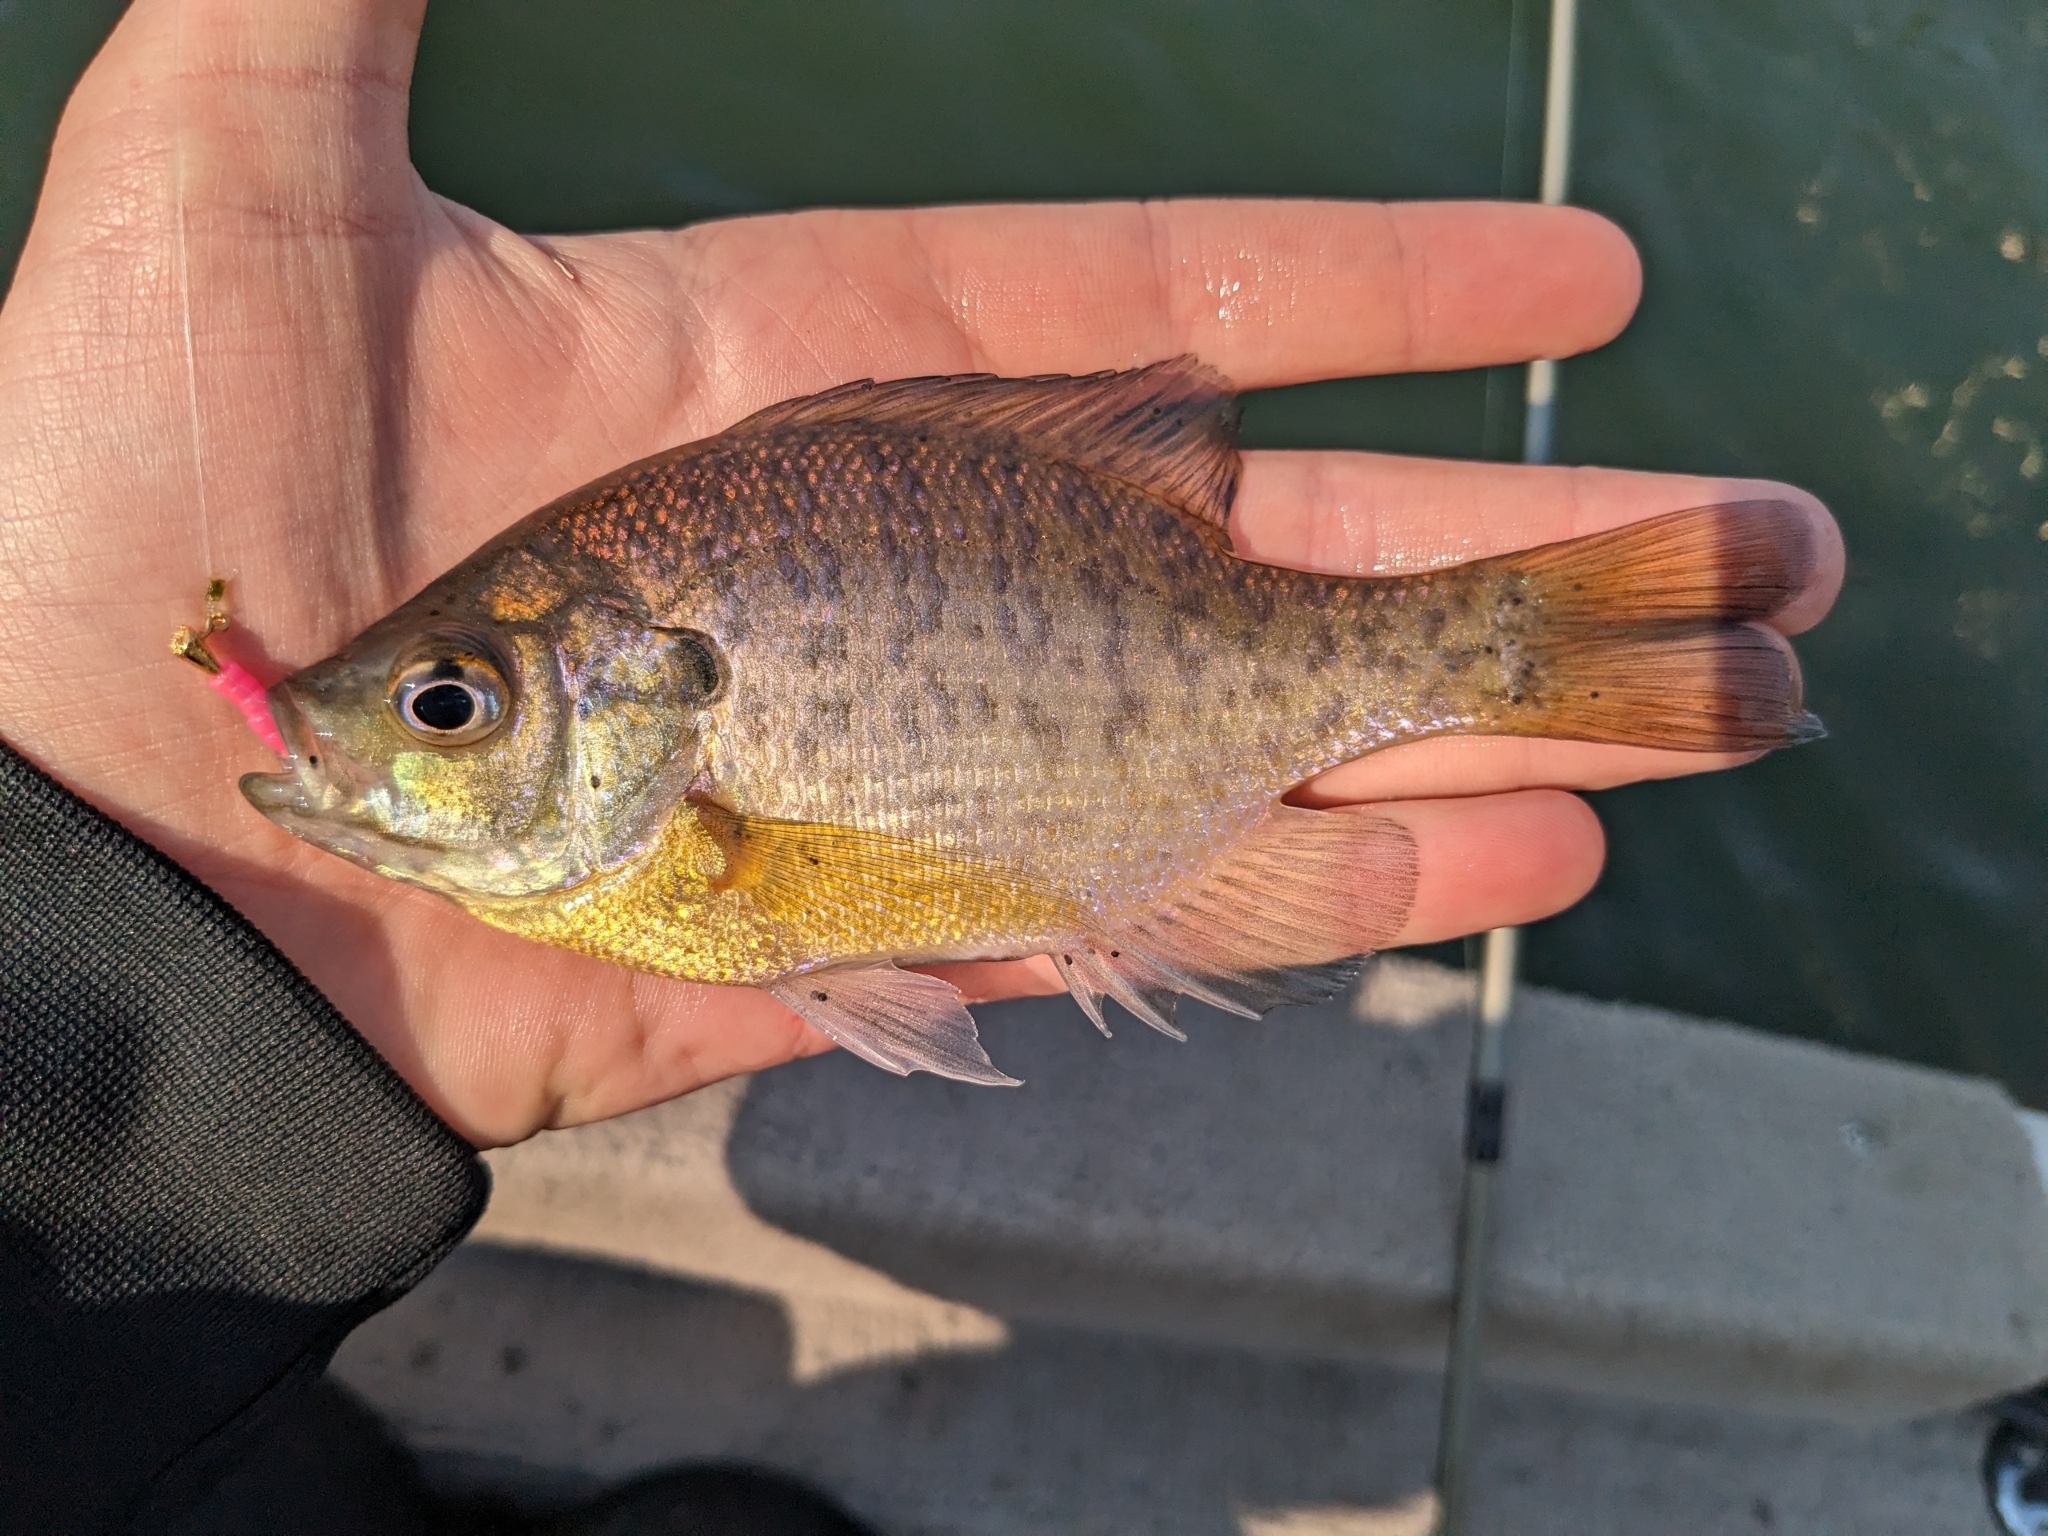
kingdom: Animalia
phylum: Chordata
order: Perciformes
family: Centrarchidae
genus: Lepomis
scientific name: Lepomis macrochirus
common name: Bluegill
